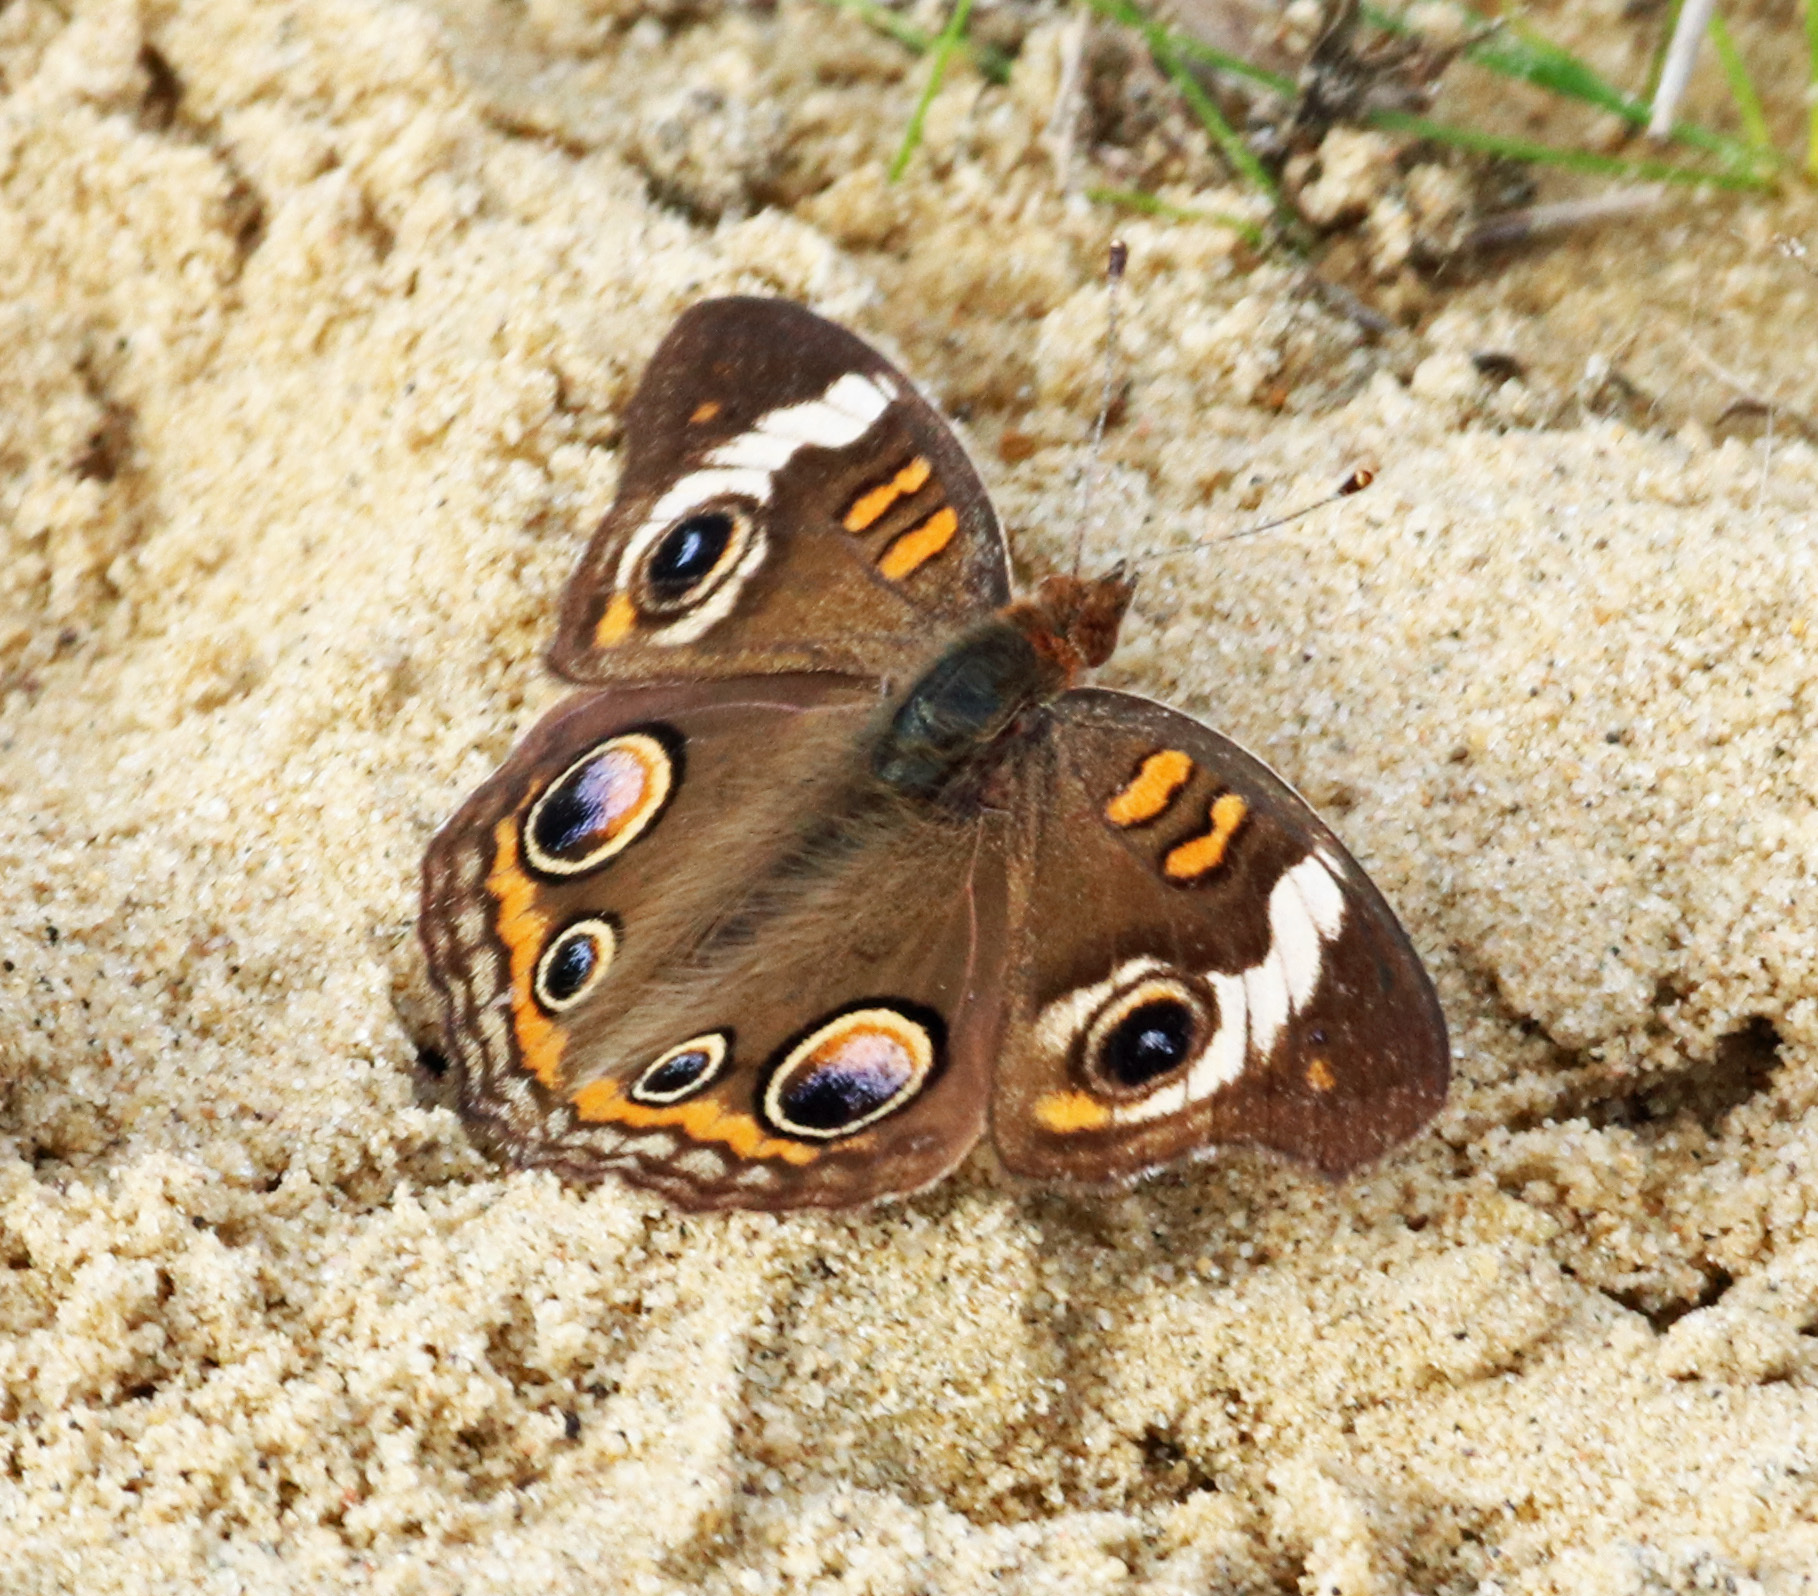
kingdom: Animalia
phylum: Arthropoda
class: Insecta
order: Lepidoptera
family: Nymphalidae
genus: Junonia
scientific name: Junonia coenia
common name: Common buckeye
